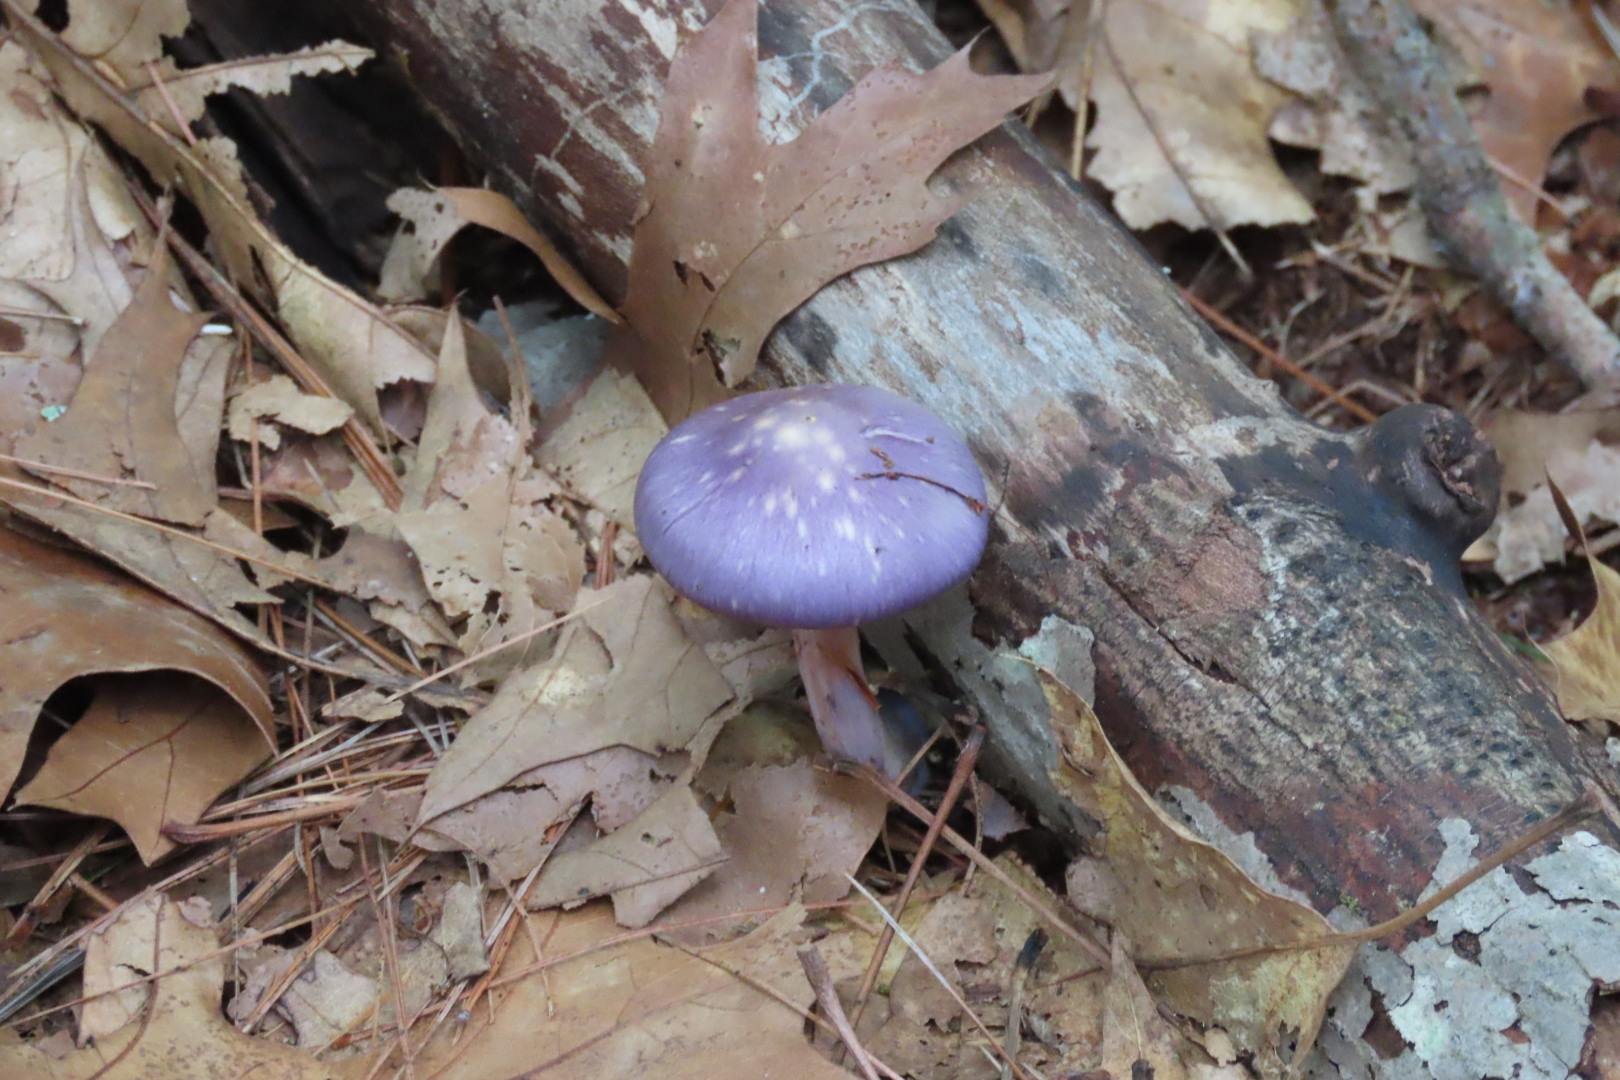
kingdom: Fungi
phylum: Basidiomycota
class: Agaricomycetes
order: Agaricales
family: Cortinariaceae
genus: Cortinarius
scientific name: Cortinarius iodes
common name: Viscid violet cort
